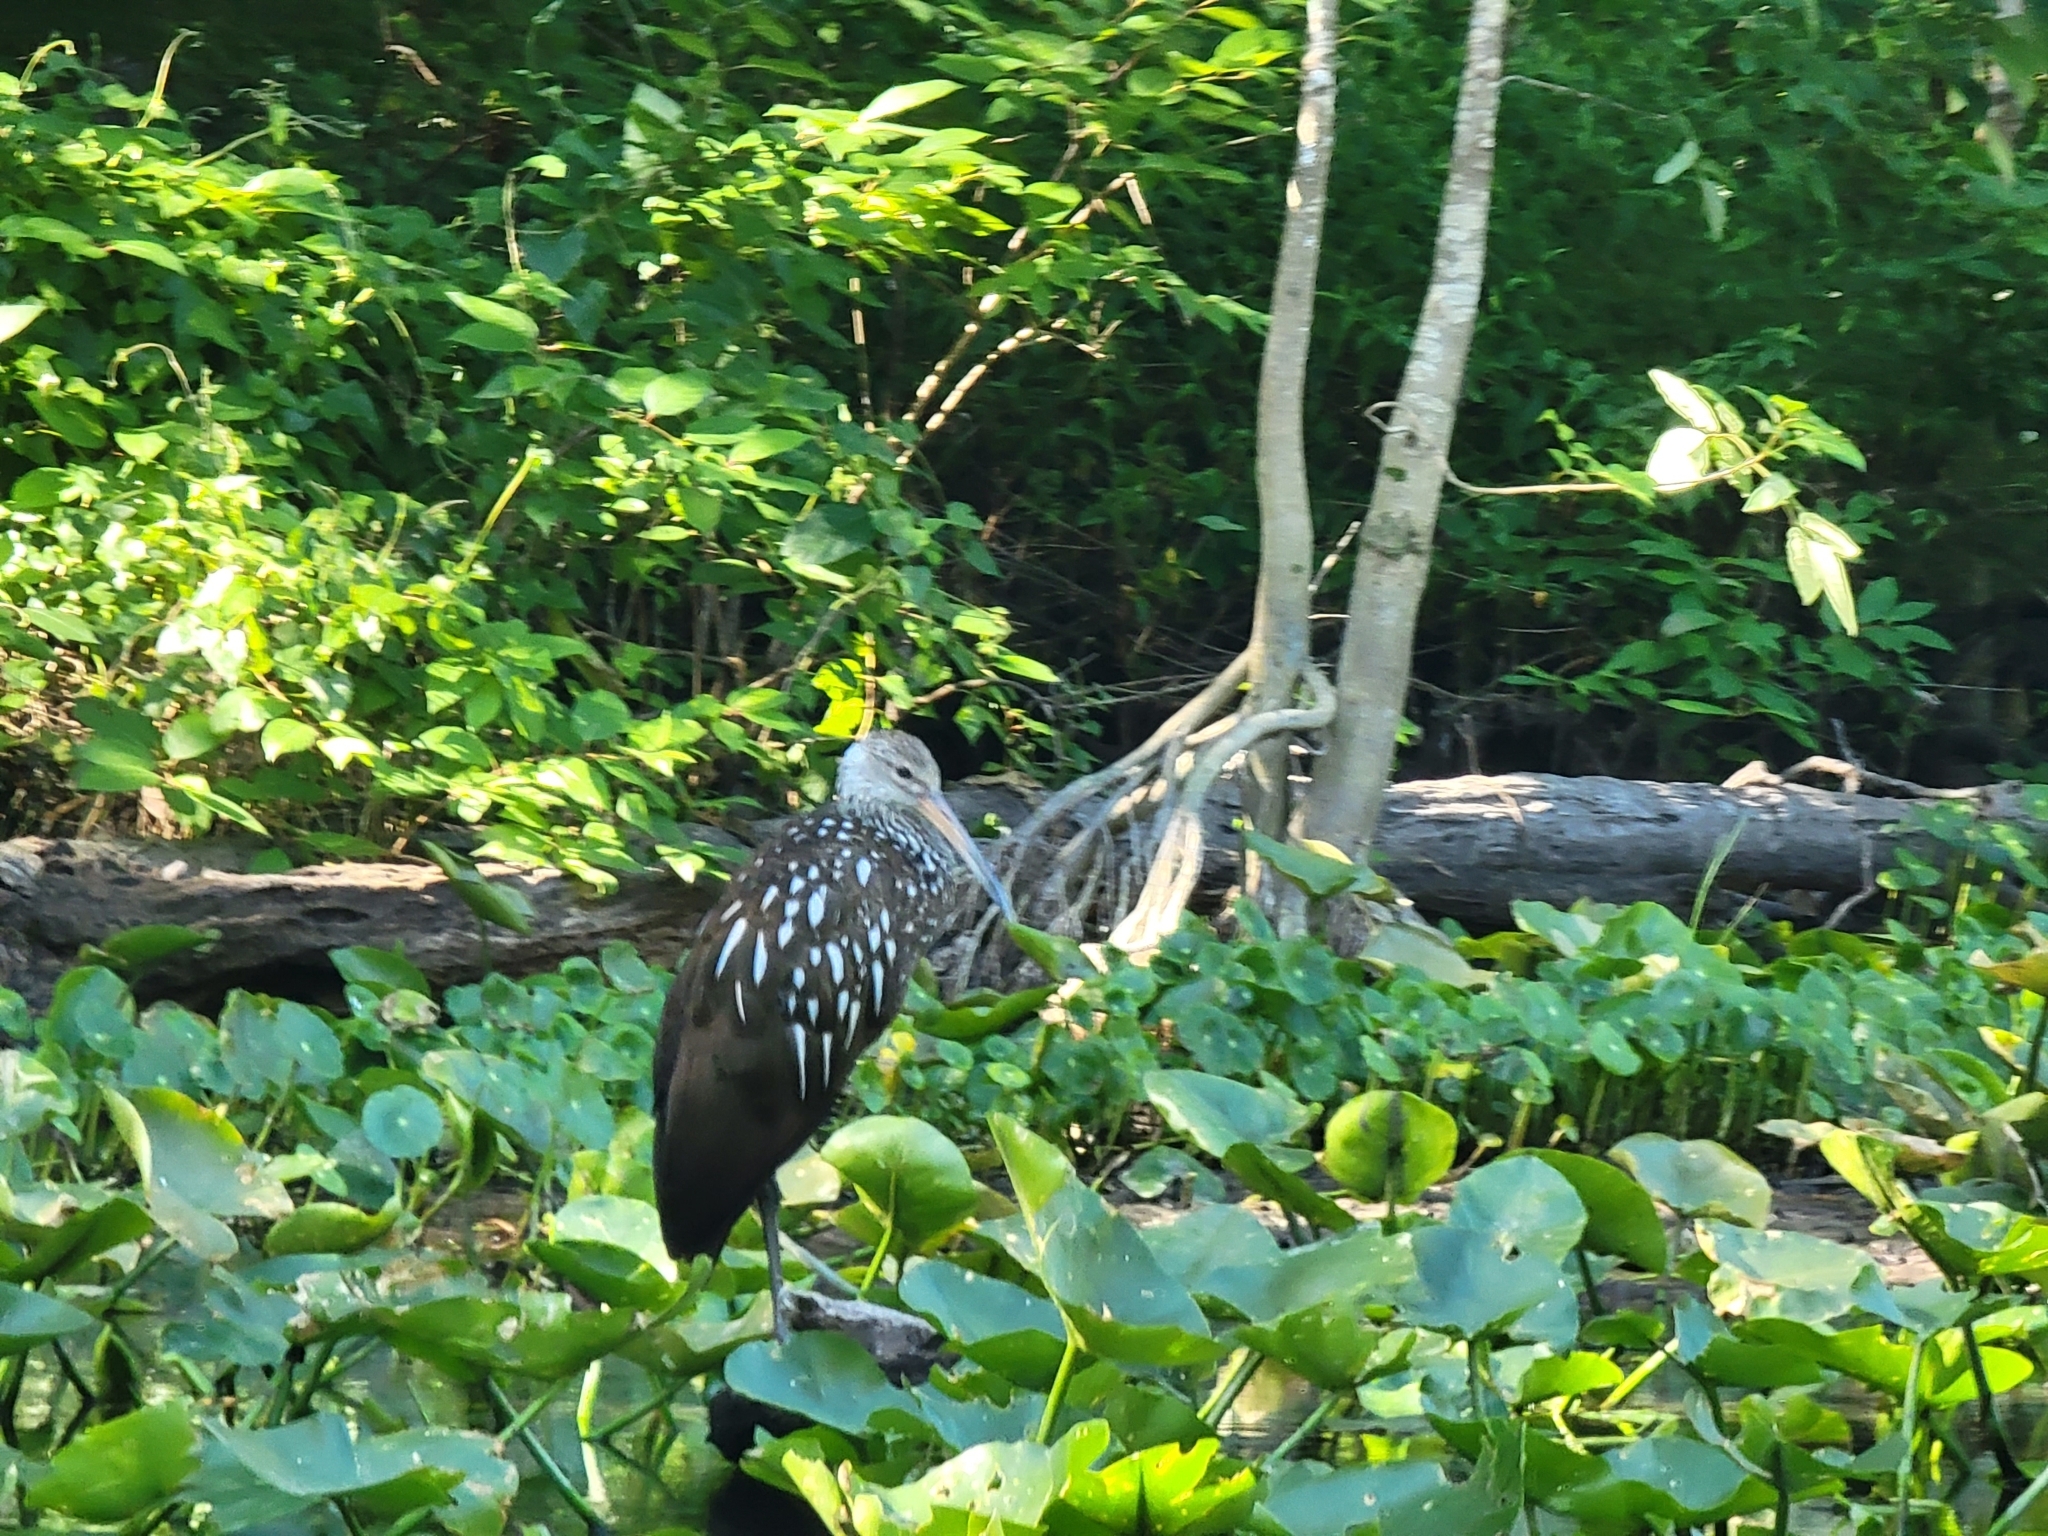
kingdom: Animalia
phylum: Chordata
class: Aves
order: Gruiformes
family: Aramidae
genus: Aramus
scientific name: Aramus guarauna
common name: Limpkin
